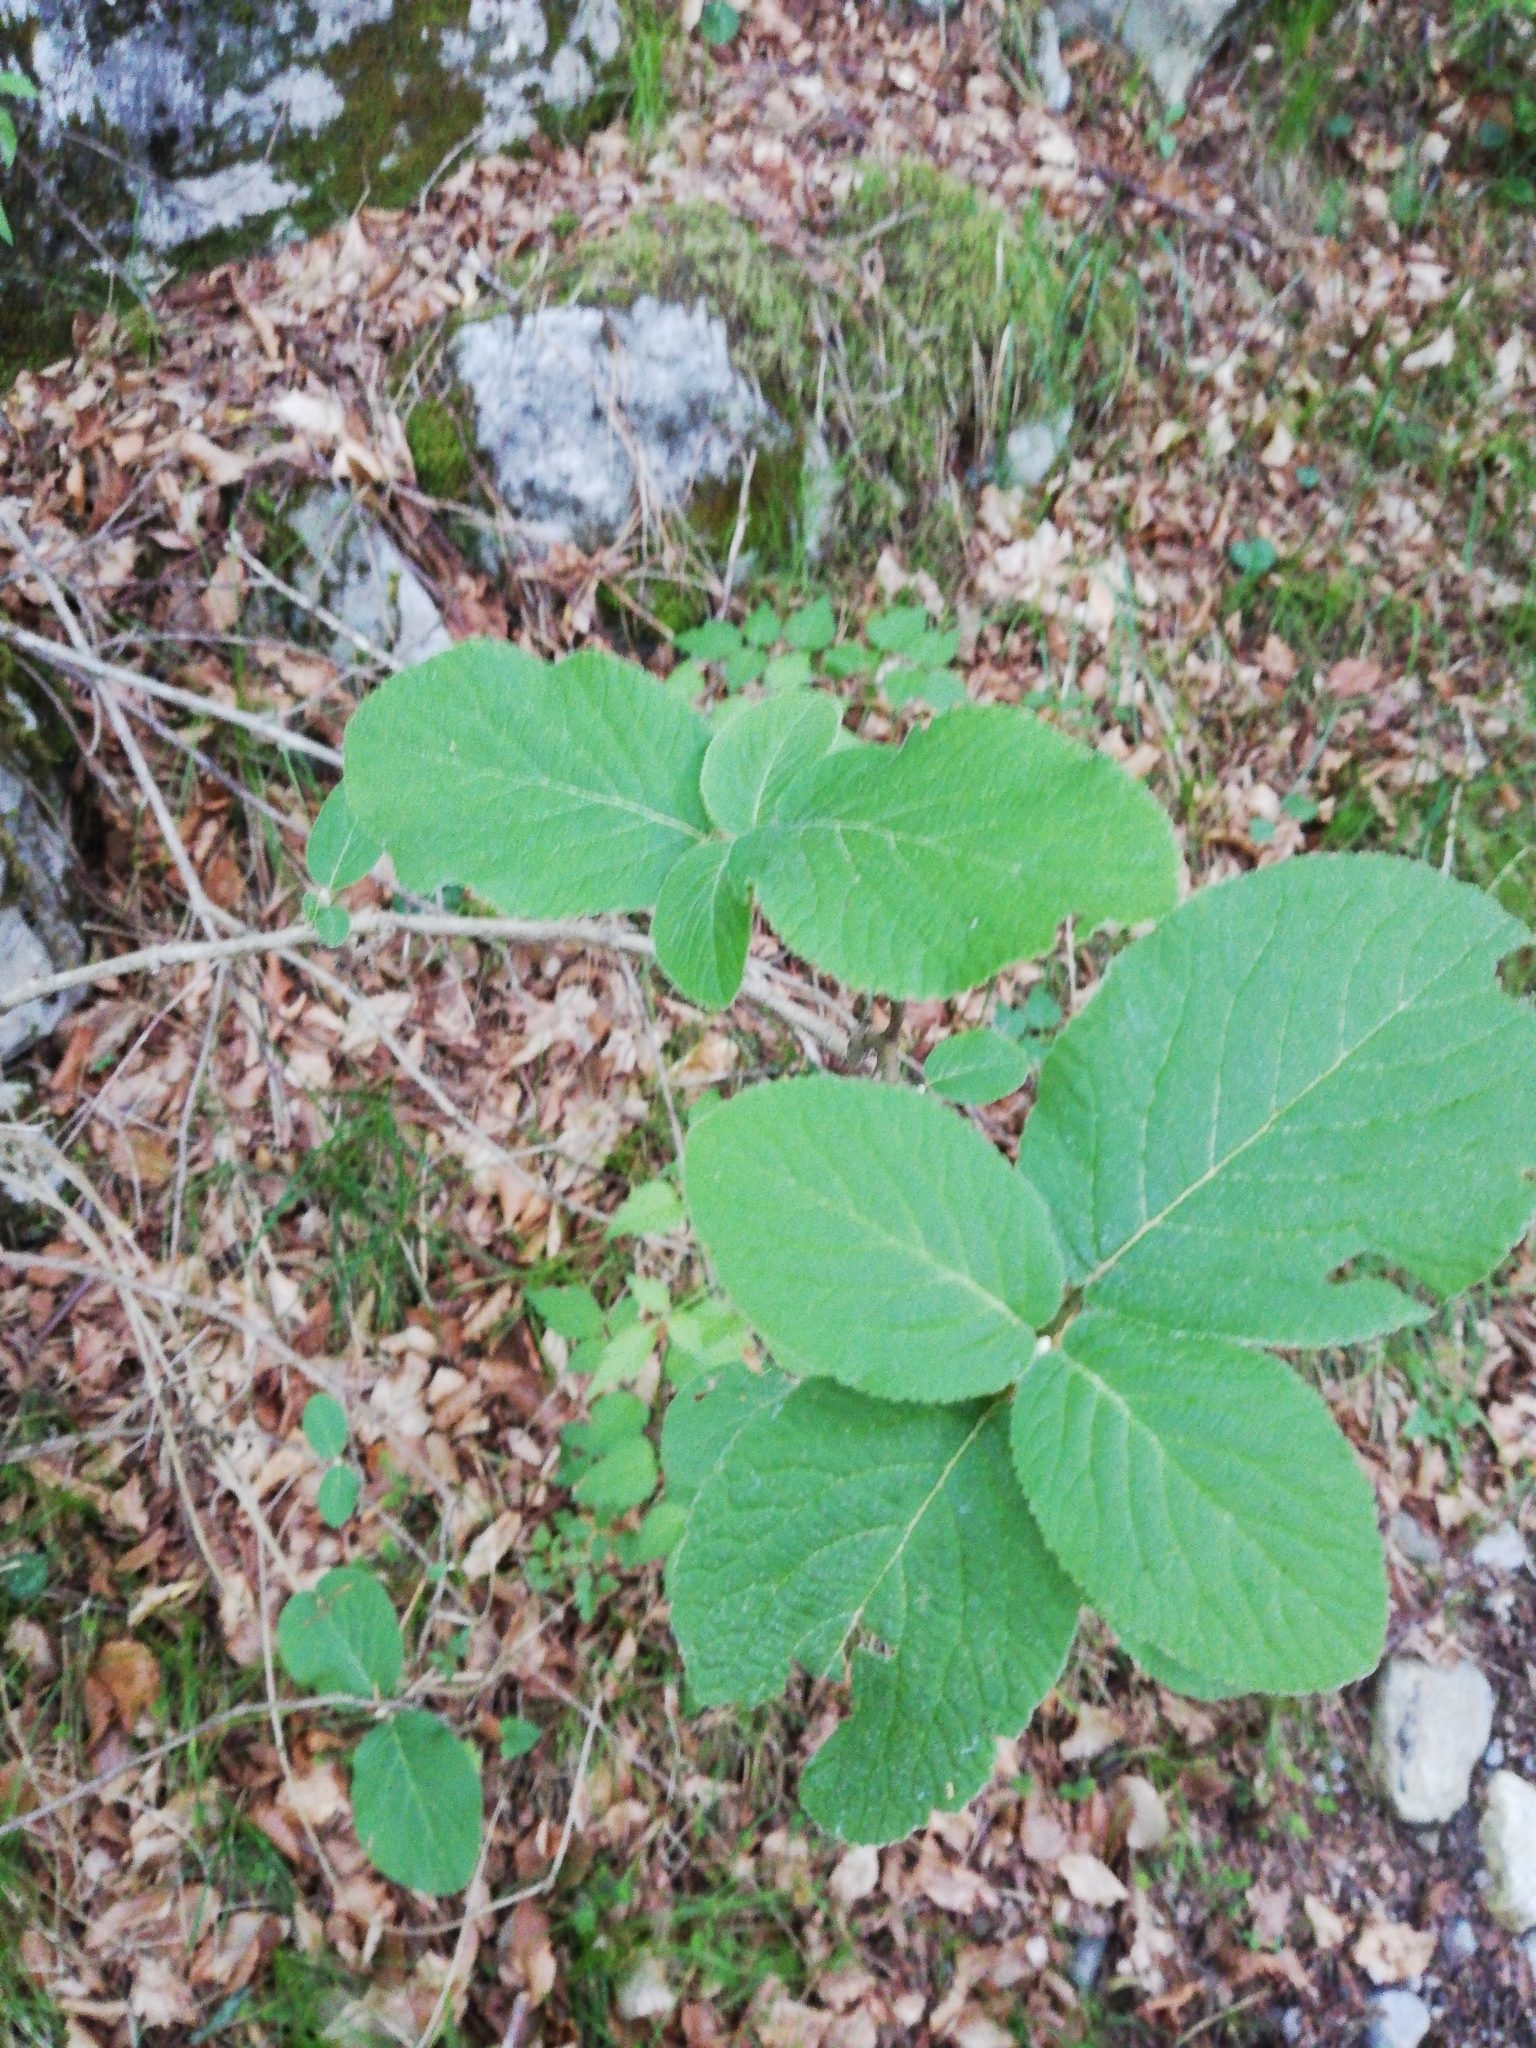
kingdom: Plantae
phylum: Tracheophyta
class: Magnoliopsida
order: Dipsacales
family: Viburnaceae
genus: Viburnum
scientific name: Viburnum lantana
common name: Wayfaring tree
